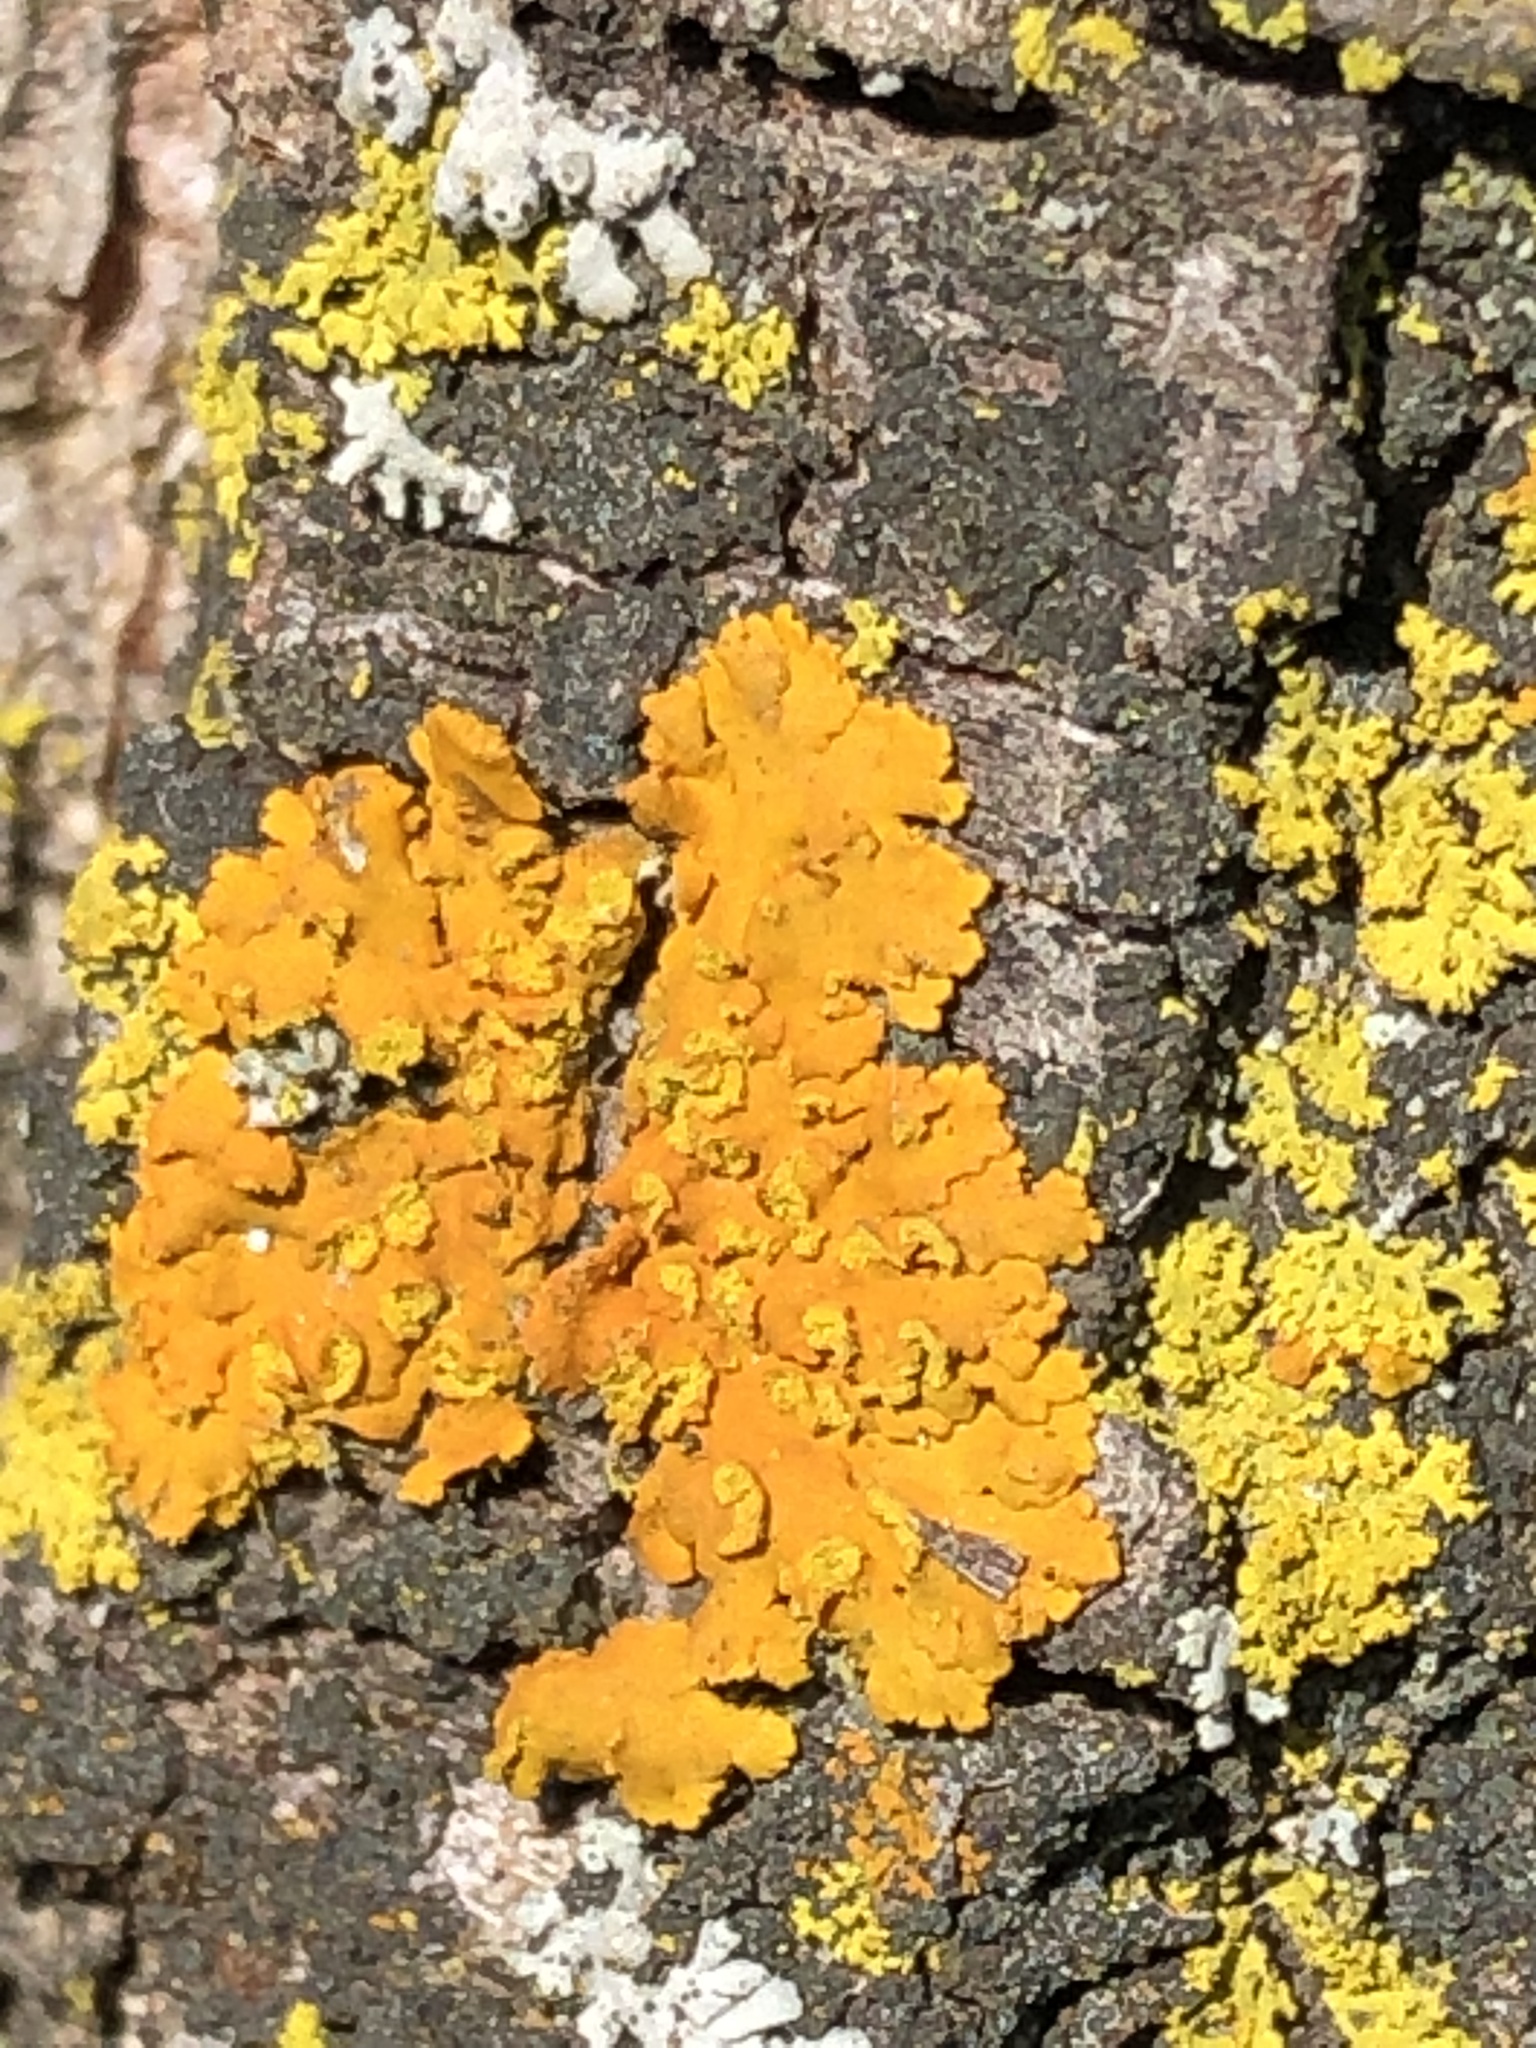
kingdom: Fungi
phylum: Ascomycota
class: Lecanoromycetes
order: Teloschistales
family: Teloschistaceae
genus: Oxneria
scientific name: Oxneria fallax
